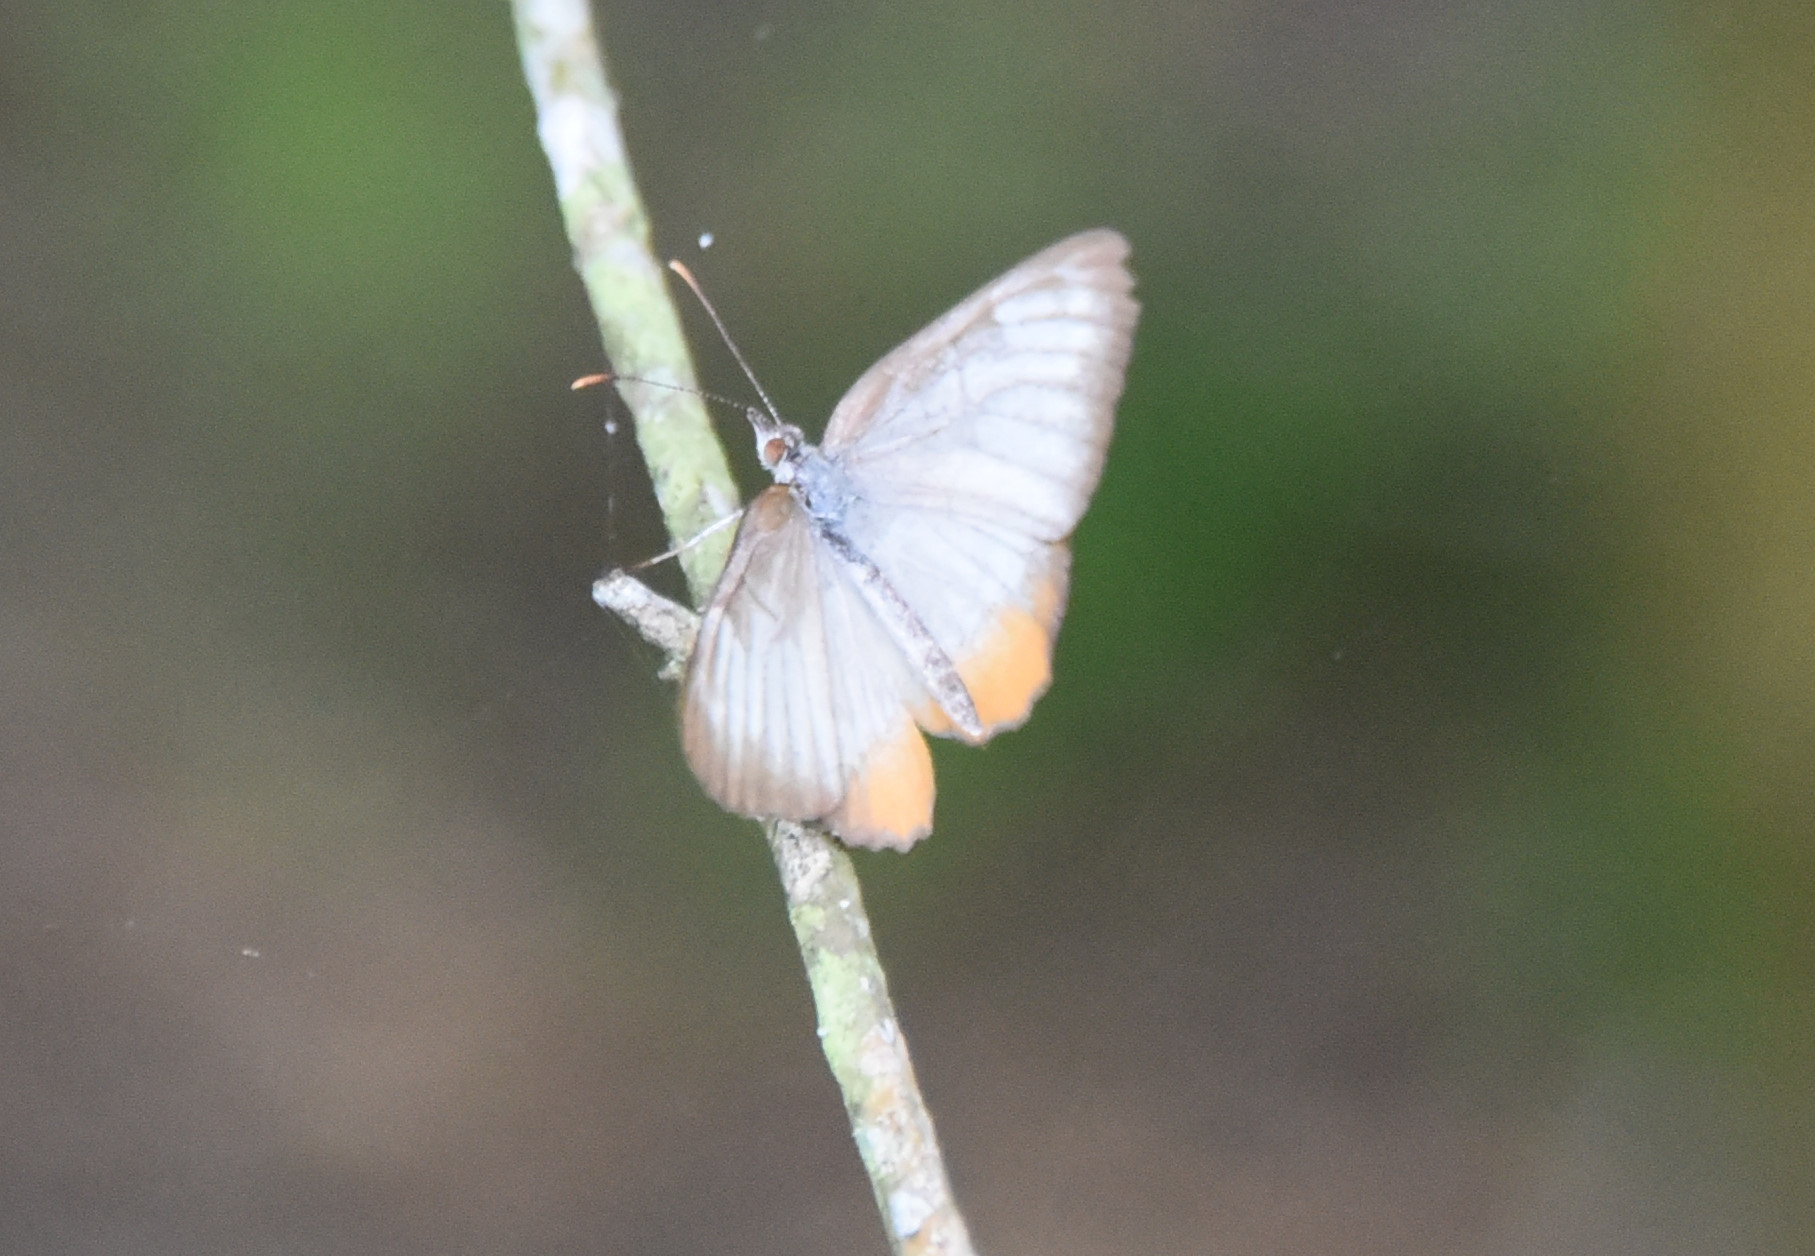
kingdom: Animalia
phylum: Arthropoda
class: Insecta
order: Lepidoptera
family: Nymphalidae
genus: Mestra
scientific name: Mestra amymone
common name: Common mestra
